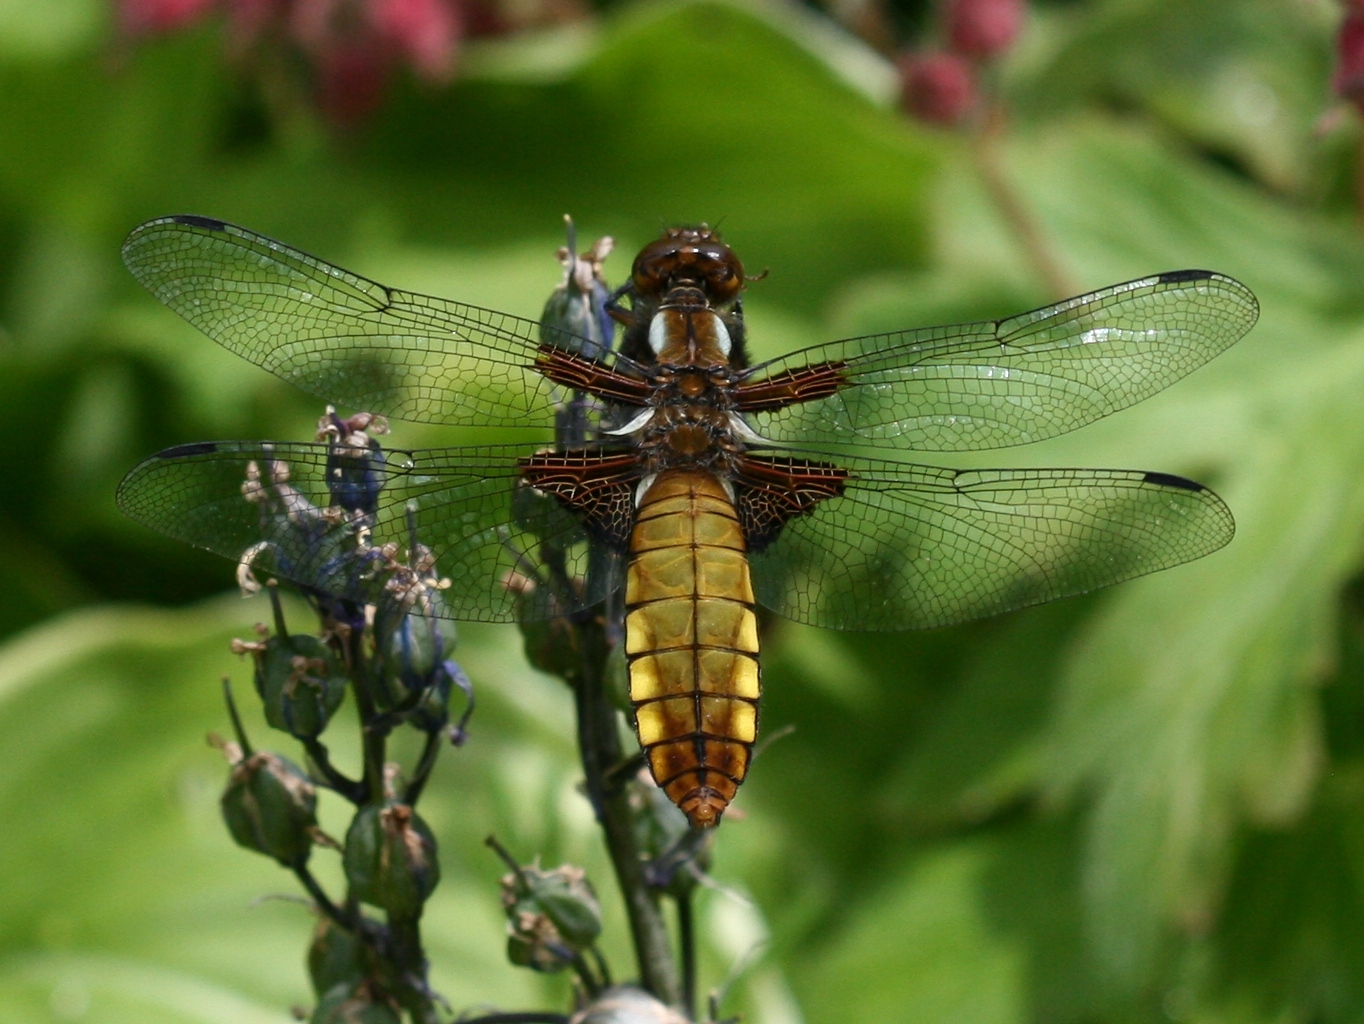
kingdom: Animalia
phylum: Arthropoda
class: Insecta
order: Odonata
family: Libellulidae
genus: Libellula
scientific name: Libellula depressa
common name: Broad-bodied chaser
